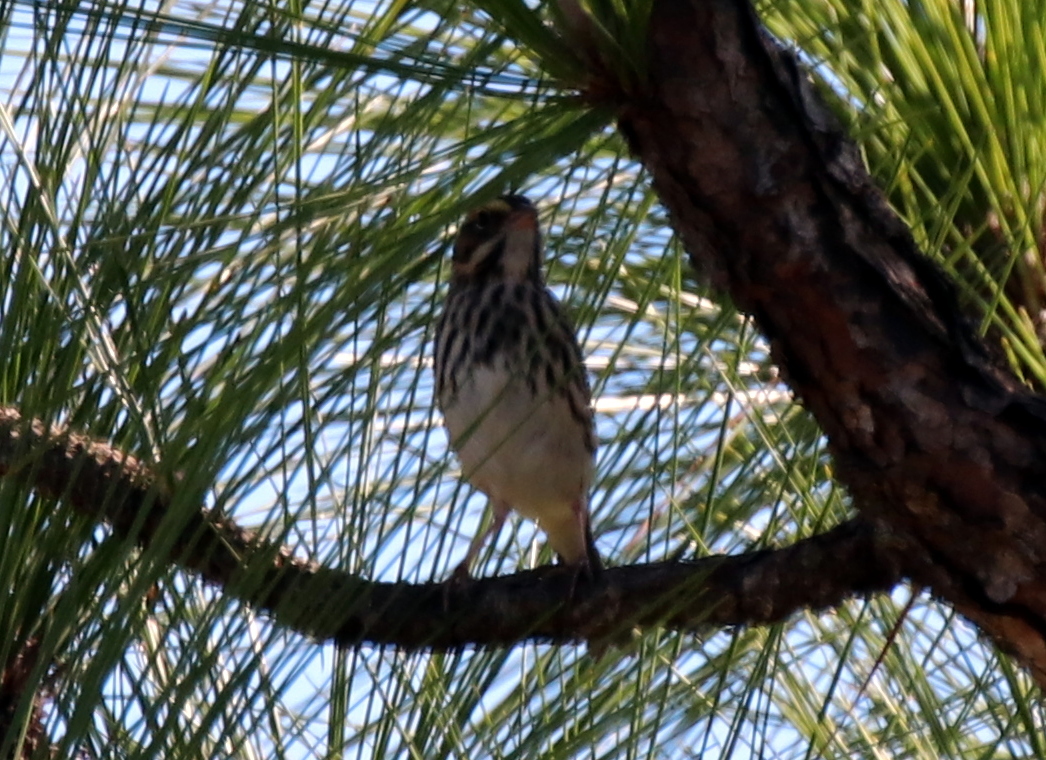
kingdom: Animalia
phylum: Chordata
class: Aves
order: Passeriformes
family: Passerellidae
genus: Passerculus
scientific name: Passerculus sandwichensis
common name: Savannah sparrow
